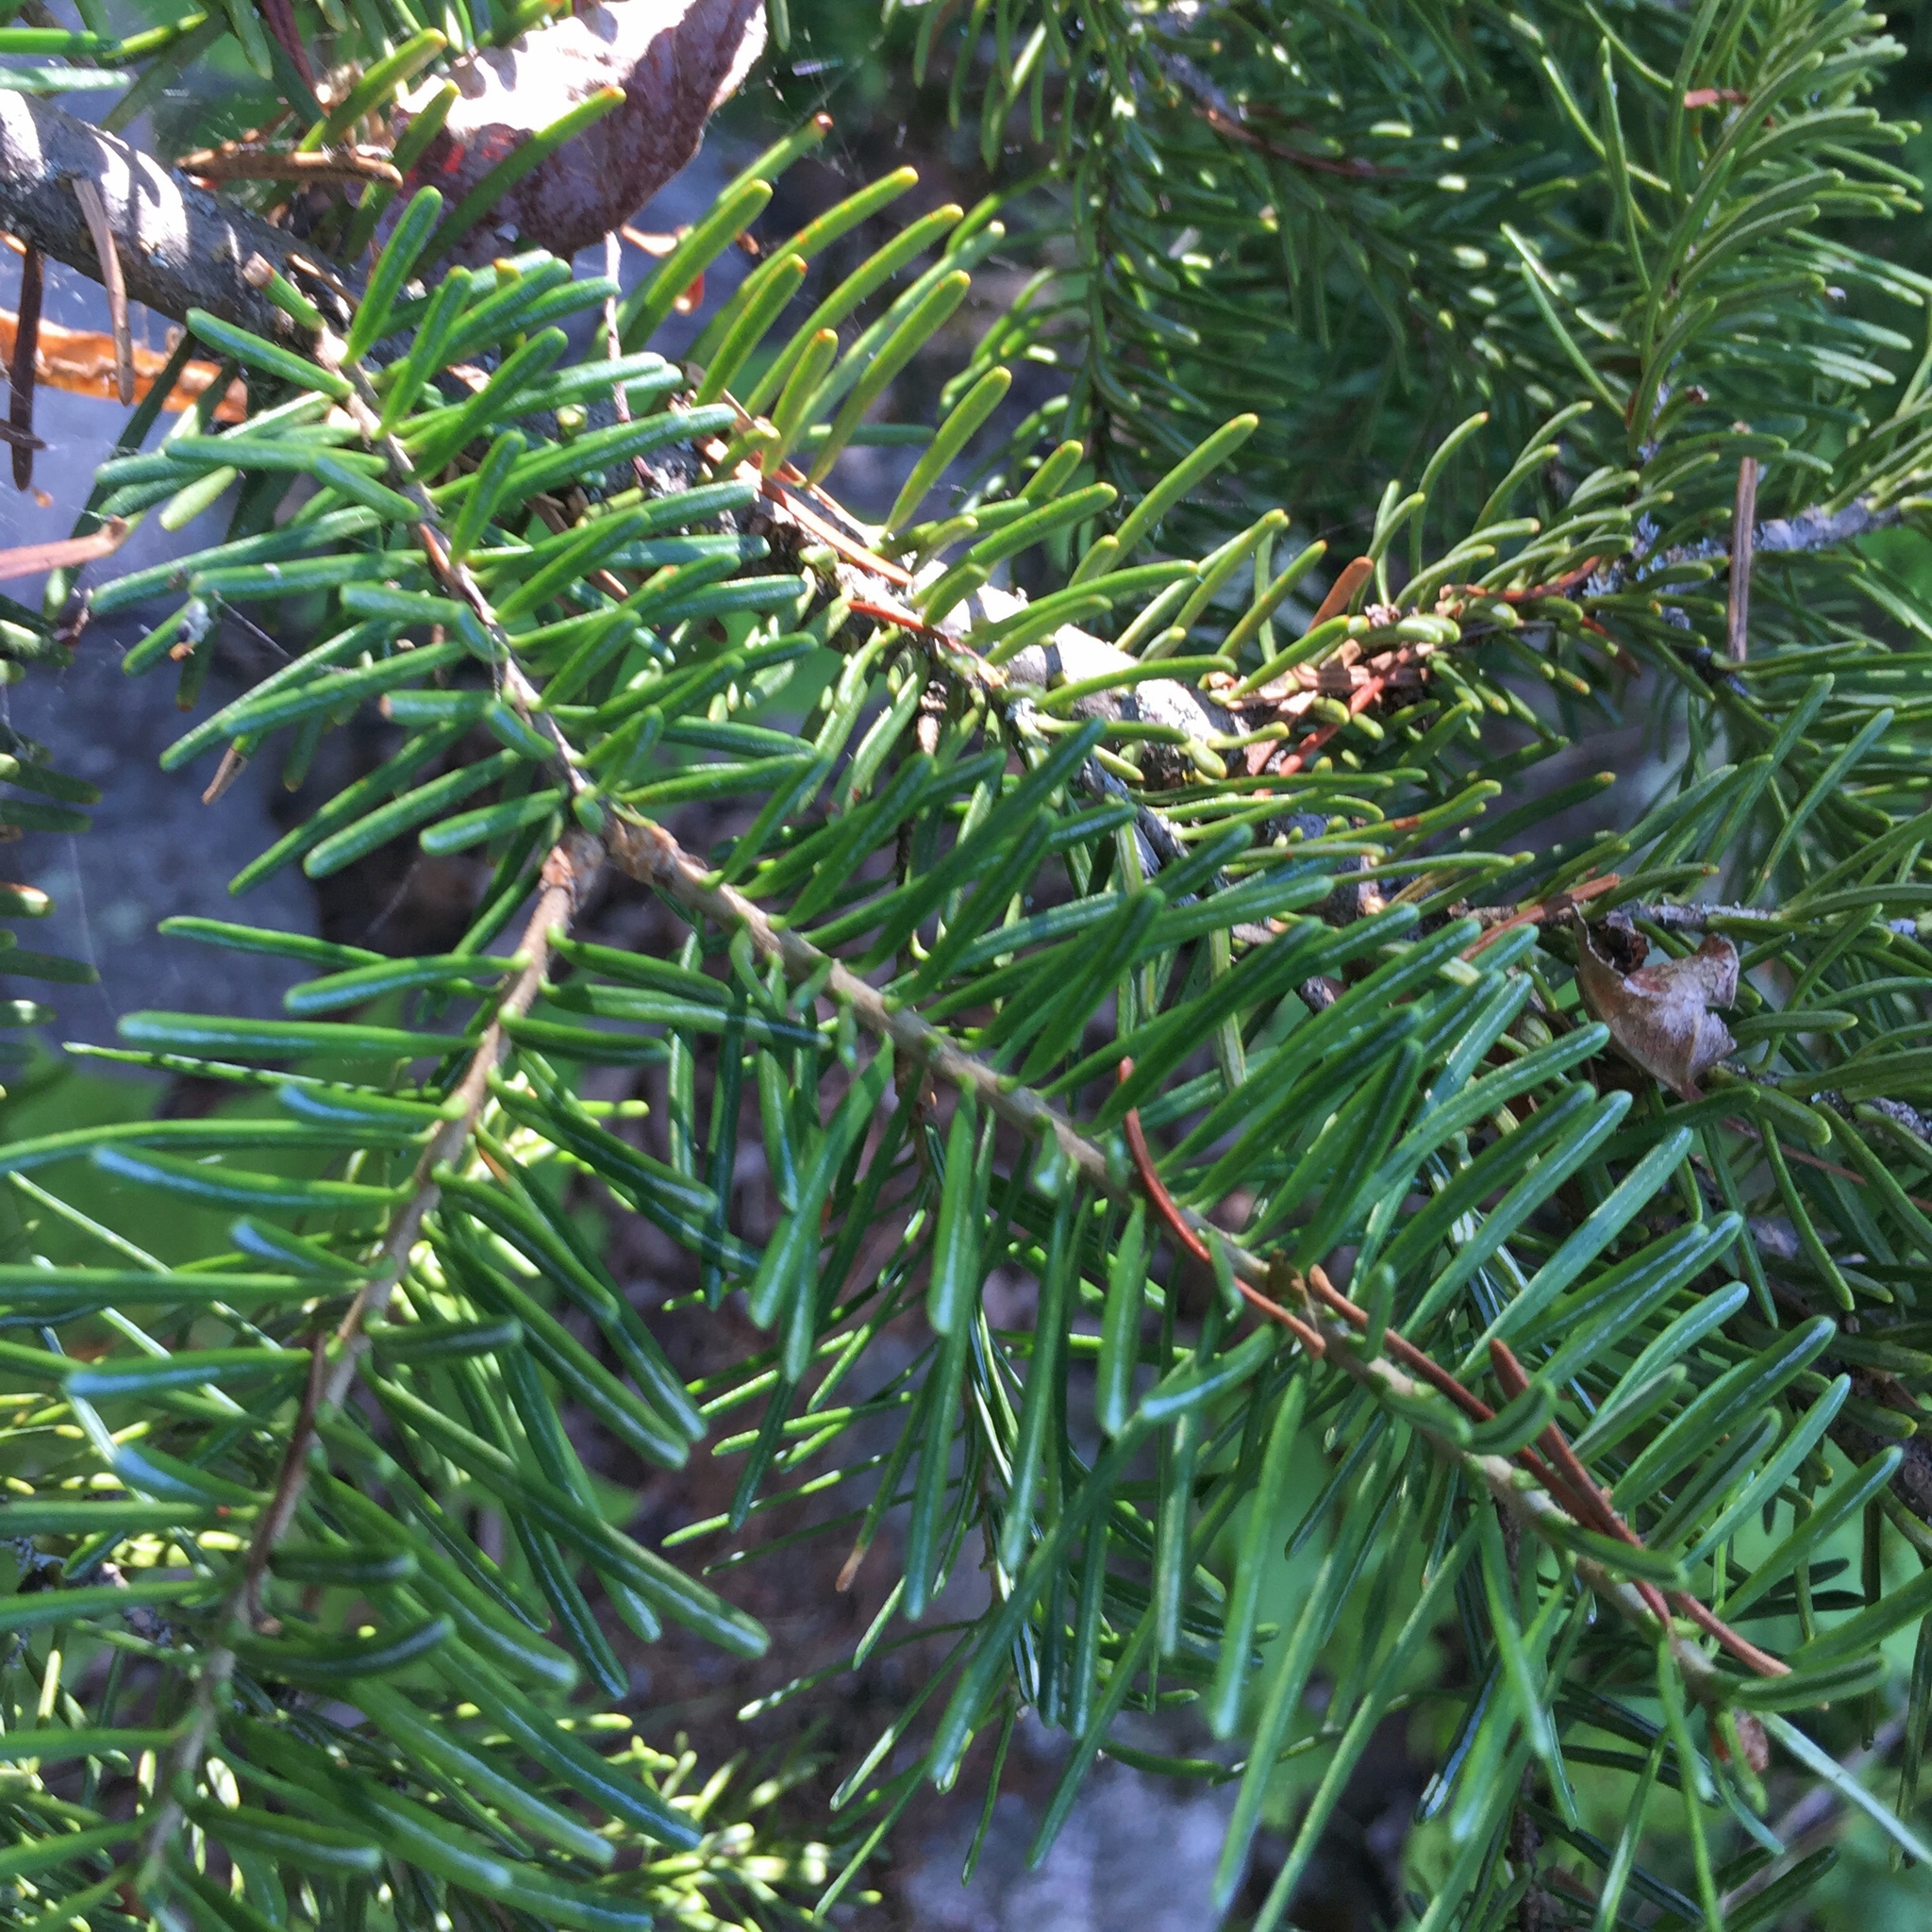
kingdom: Plantae
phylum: Tracheophyta
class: Pinopsida
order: Pinales
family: Pinaceae
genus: Abies
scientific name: Abies balsamea
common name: Balsam fir
